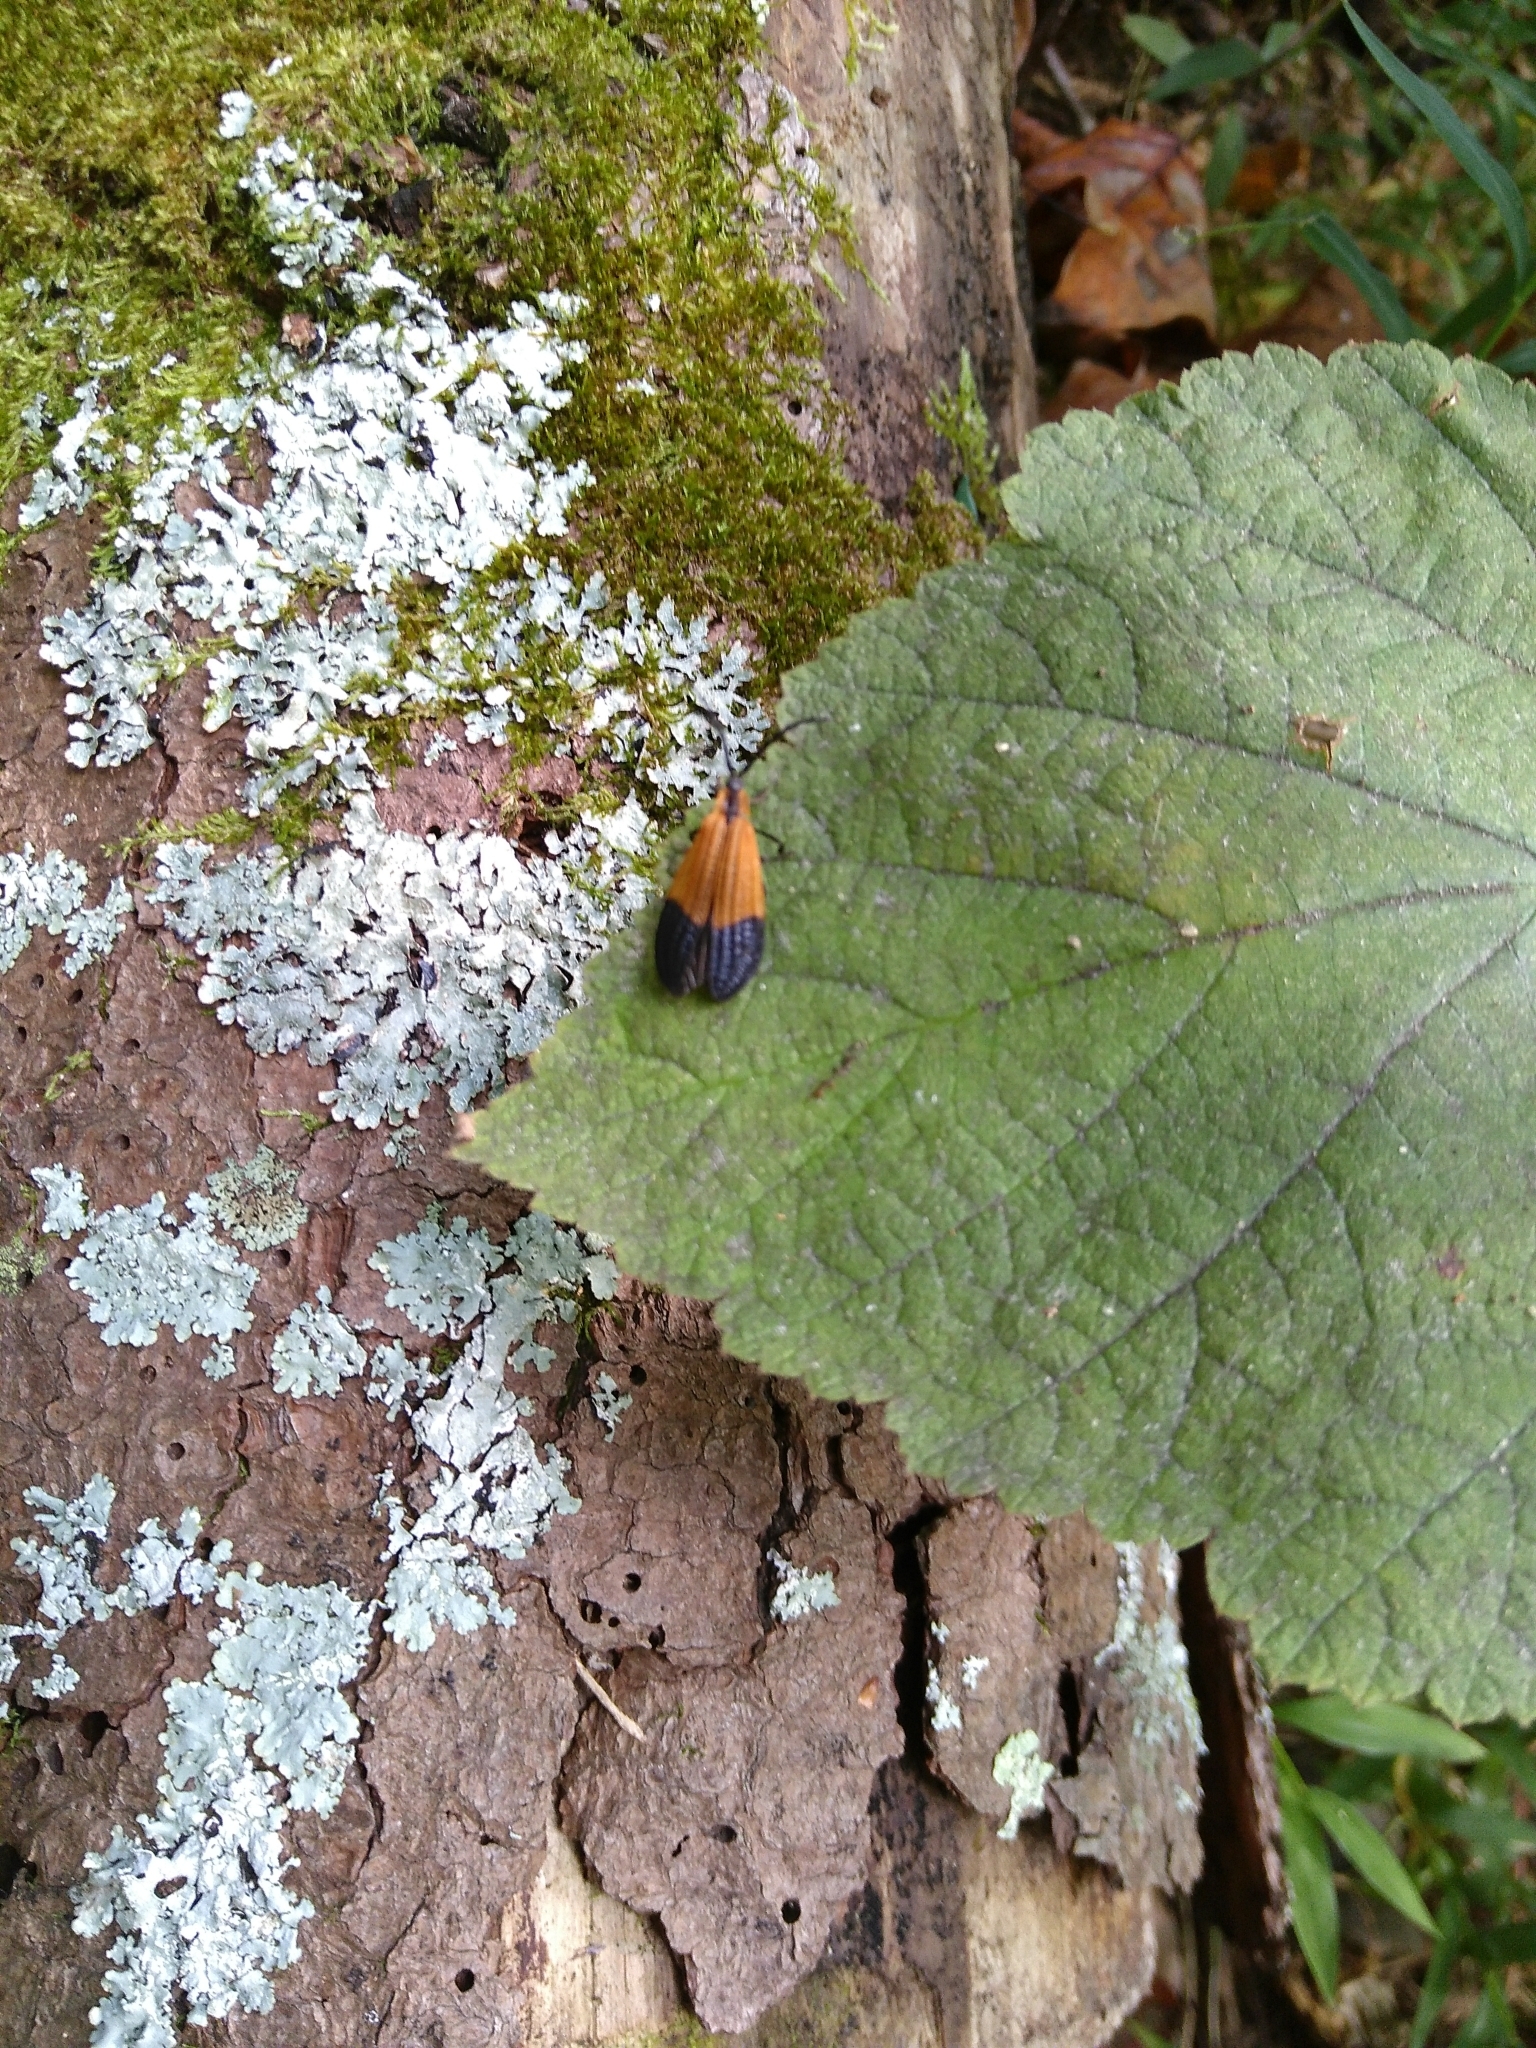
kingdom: Animalia
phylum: Arthropoda
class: Insecta
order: Coleoptera
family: Lycidae
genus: Calopteron
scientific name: Calopteron terminale
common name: End band net-winged beetle
